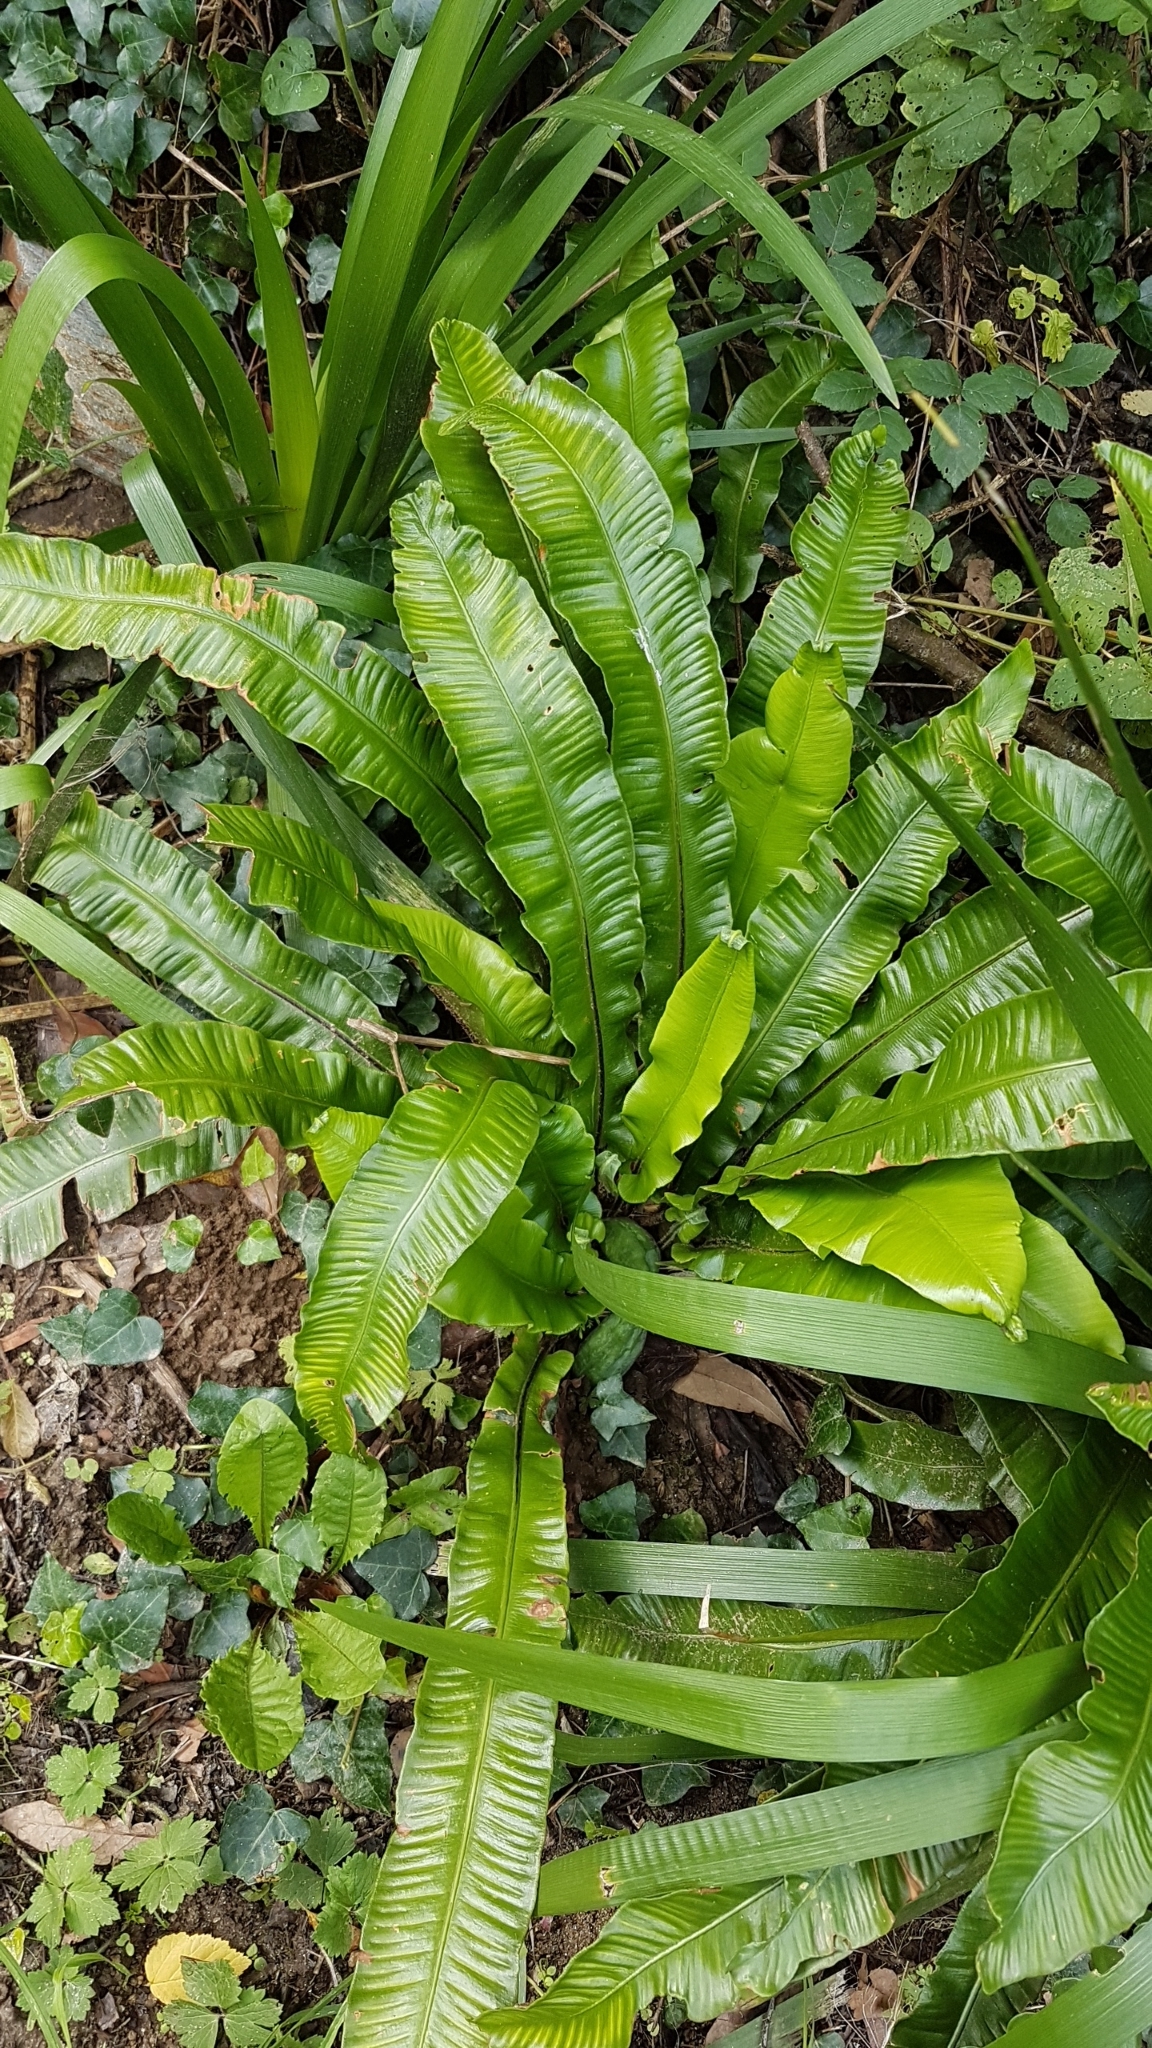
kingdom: Plantae
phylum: Tracheophyta
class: Polypodiopsida
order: Polypodiales
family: Aspleniaceae
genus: Asplenium
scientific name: Asplenium scolopendrium
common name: Hart's-tongue fern
